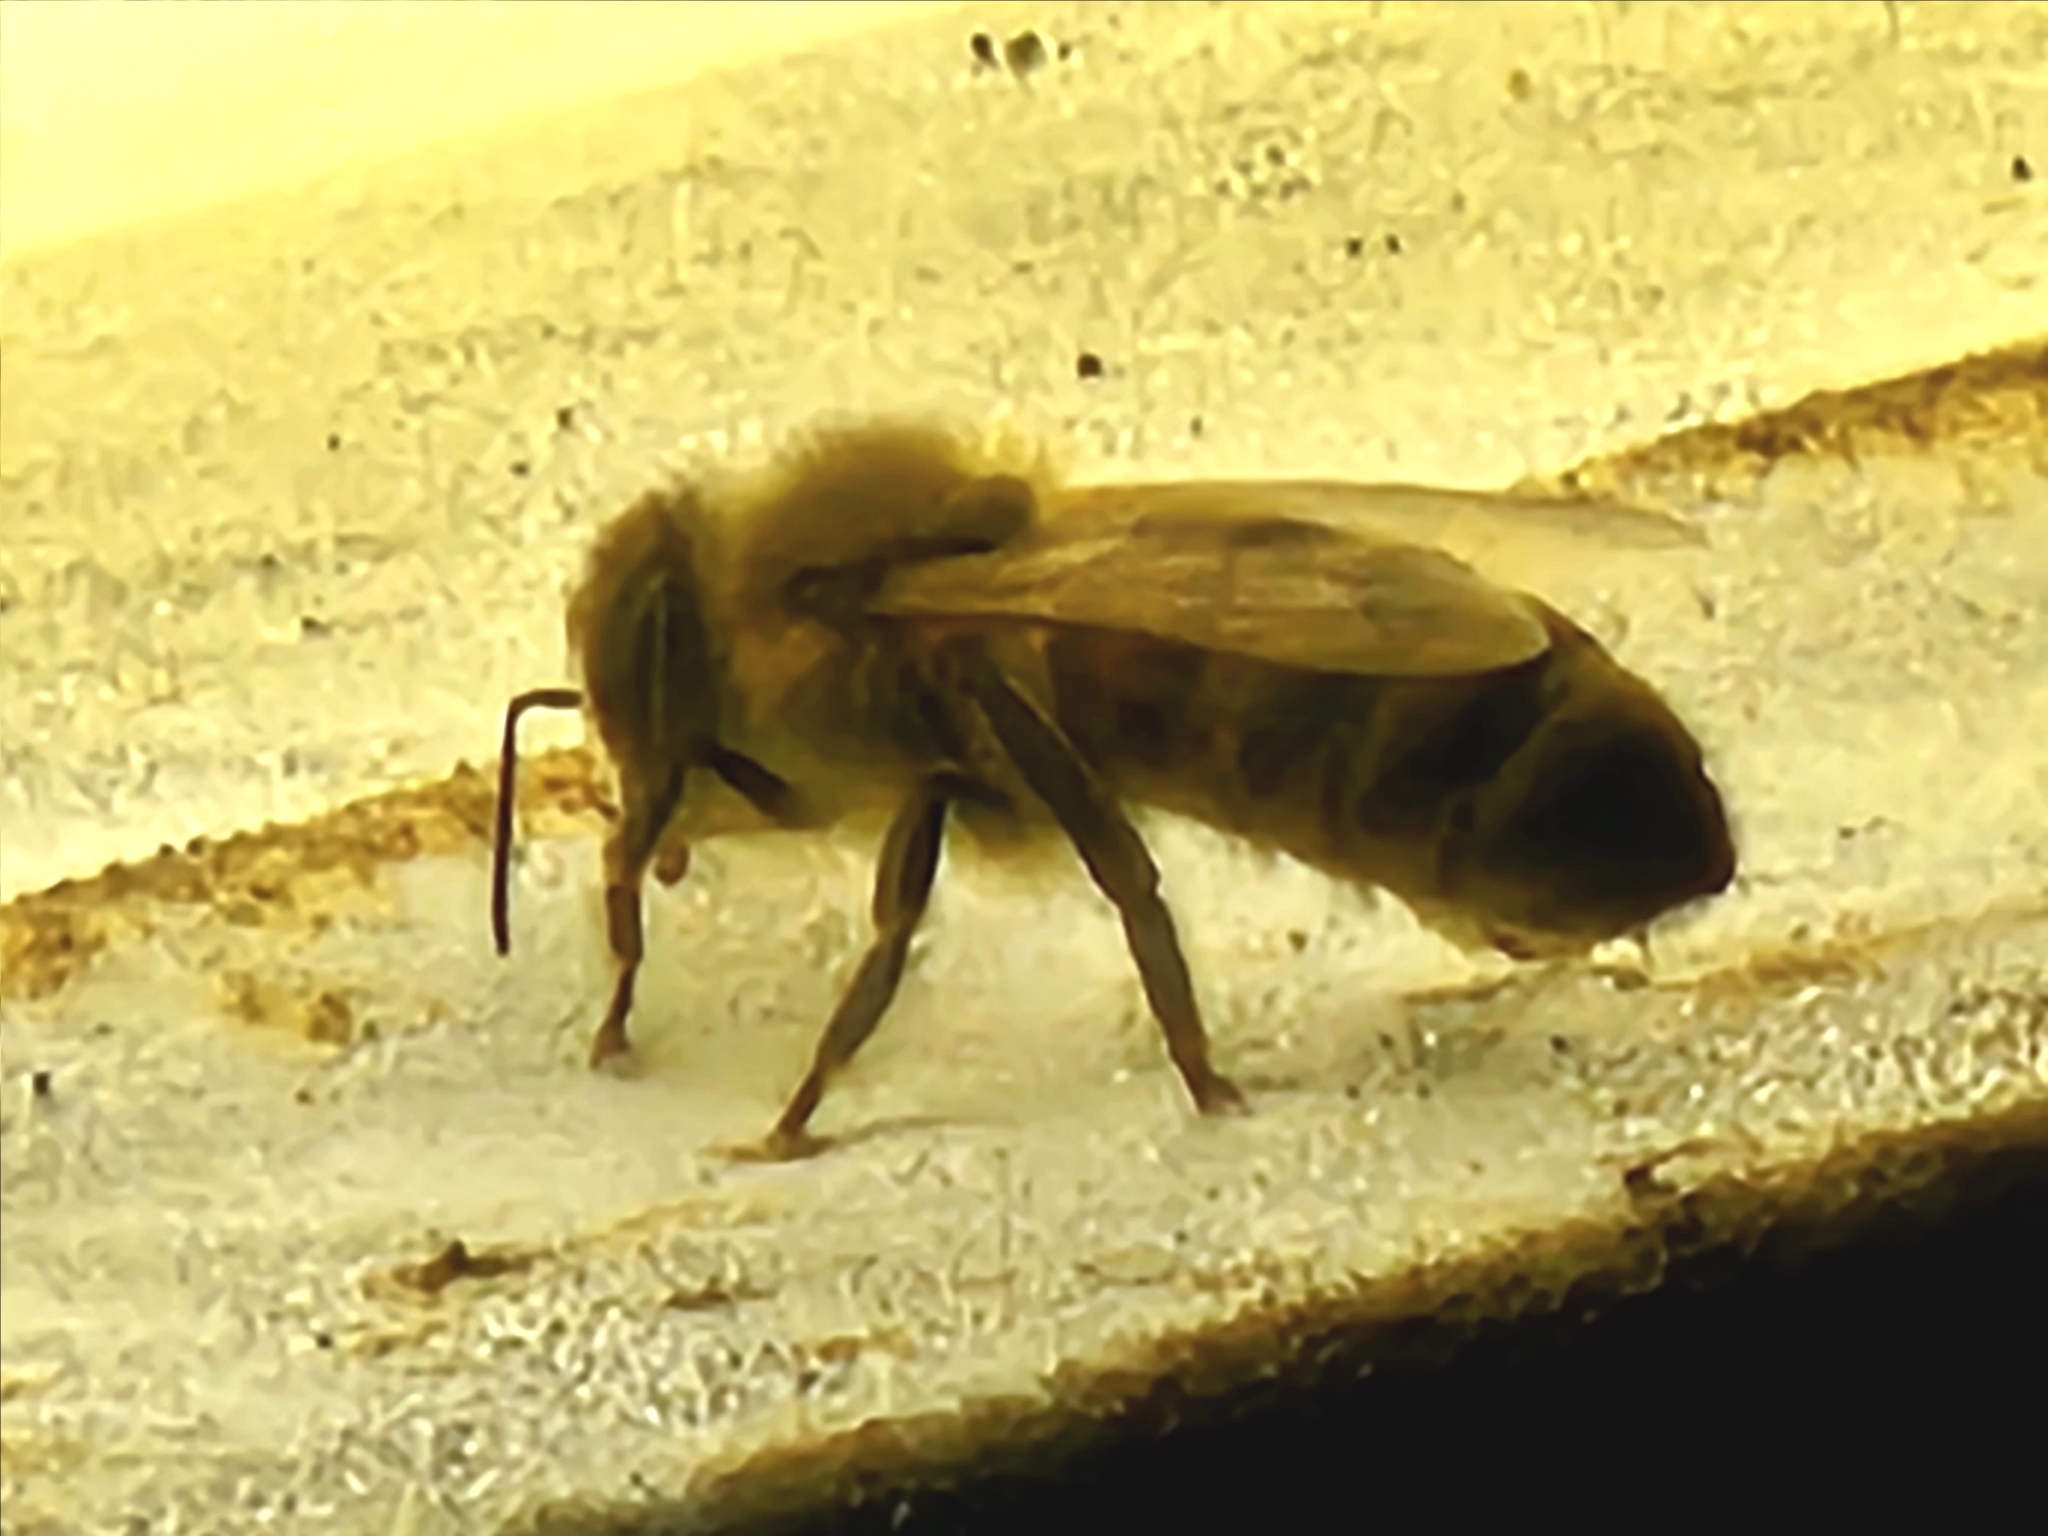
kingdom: Animalia
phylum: Arthropoda
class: Insecta
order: Hymenoptera
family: Apidae
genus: Apis
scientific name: Apis mellifera
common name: Honey bee
